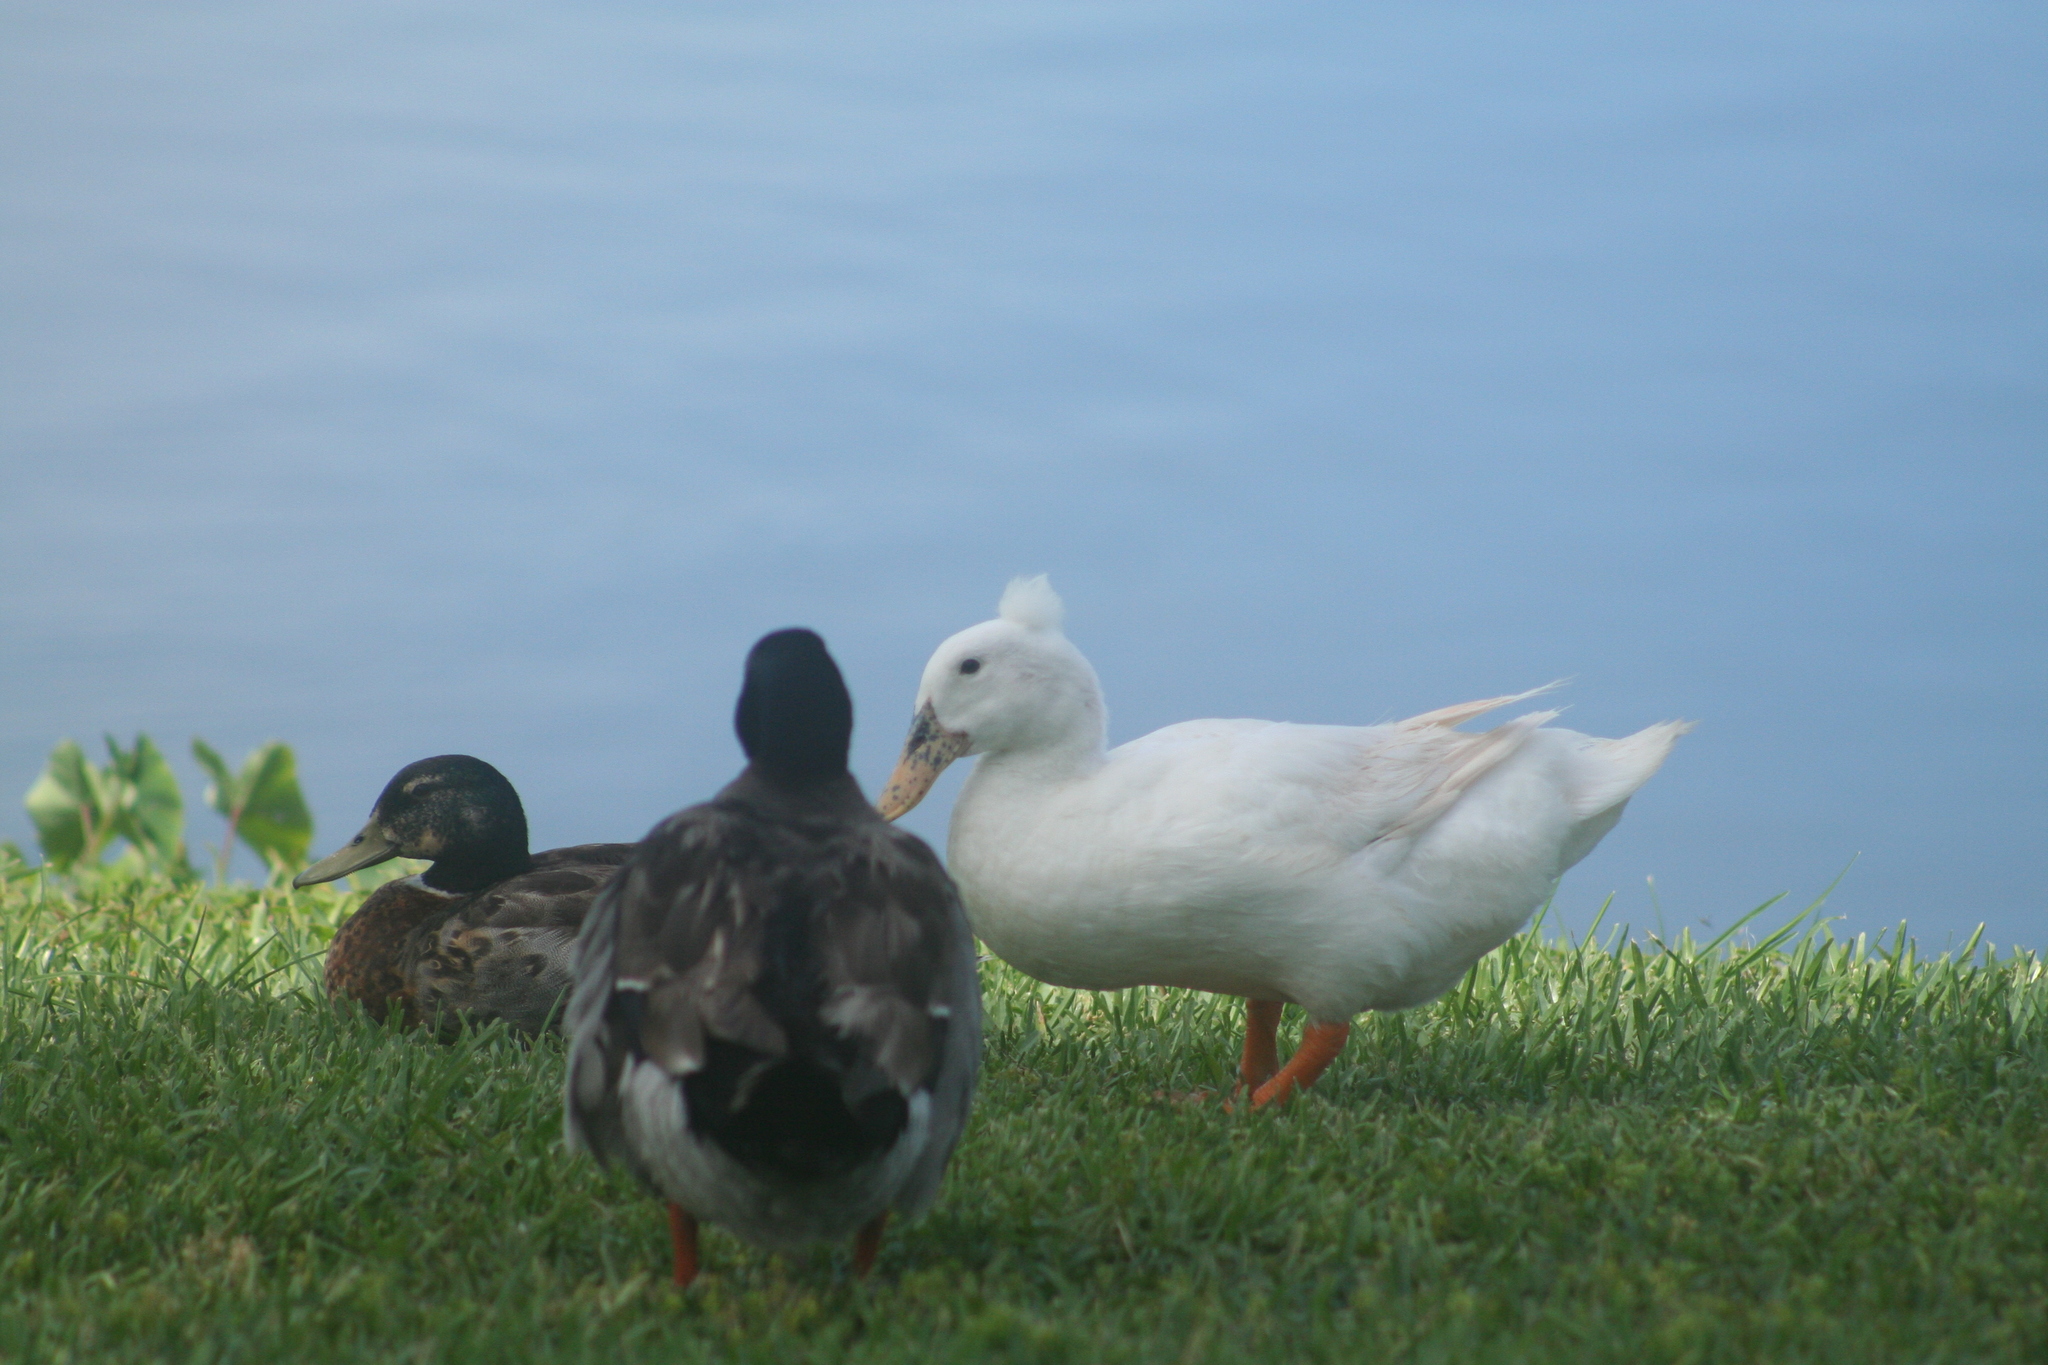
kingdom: Animalia
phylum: Chordata
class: Aves
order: Anseriformes
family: Anatidae
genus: Anas
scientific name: Anas platyrhynchos
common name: Mallard
